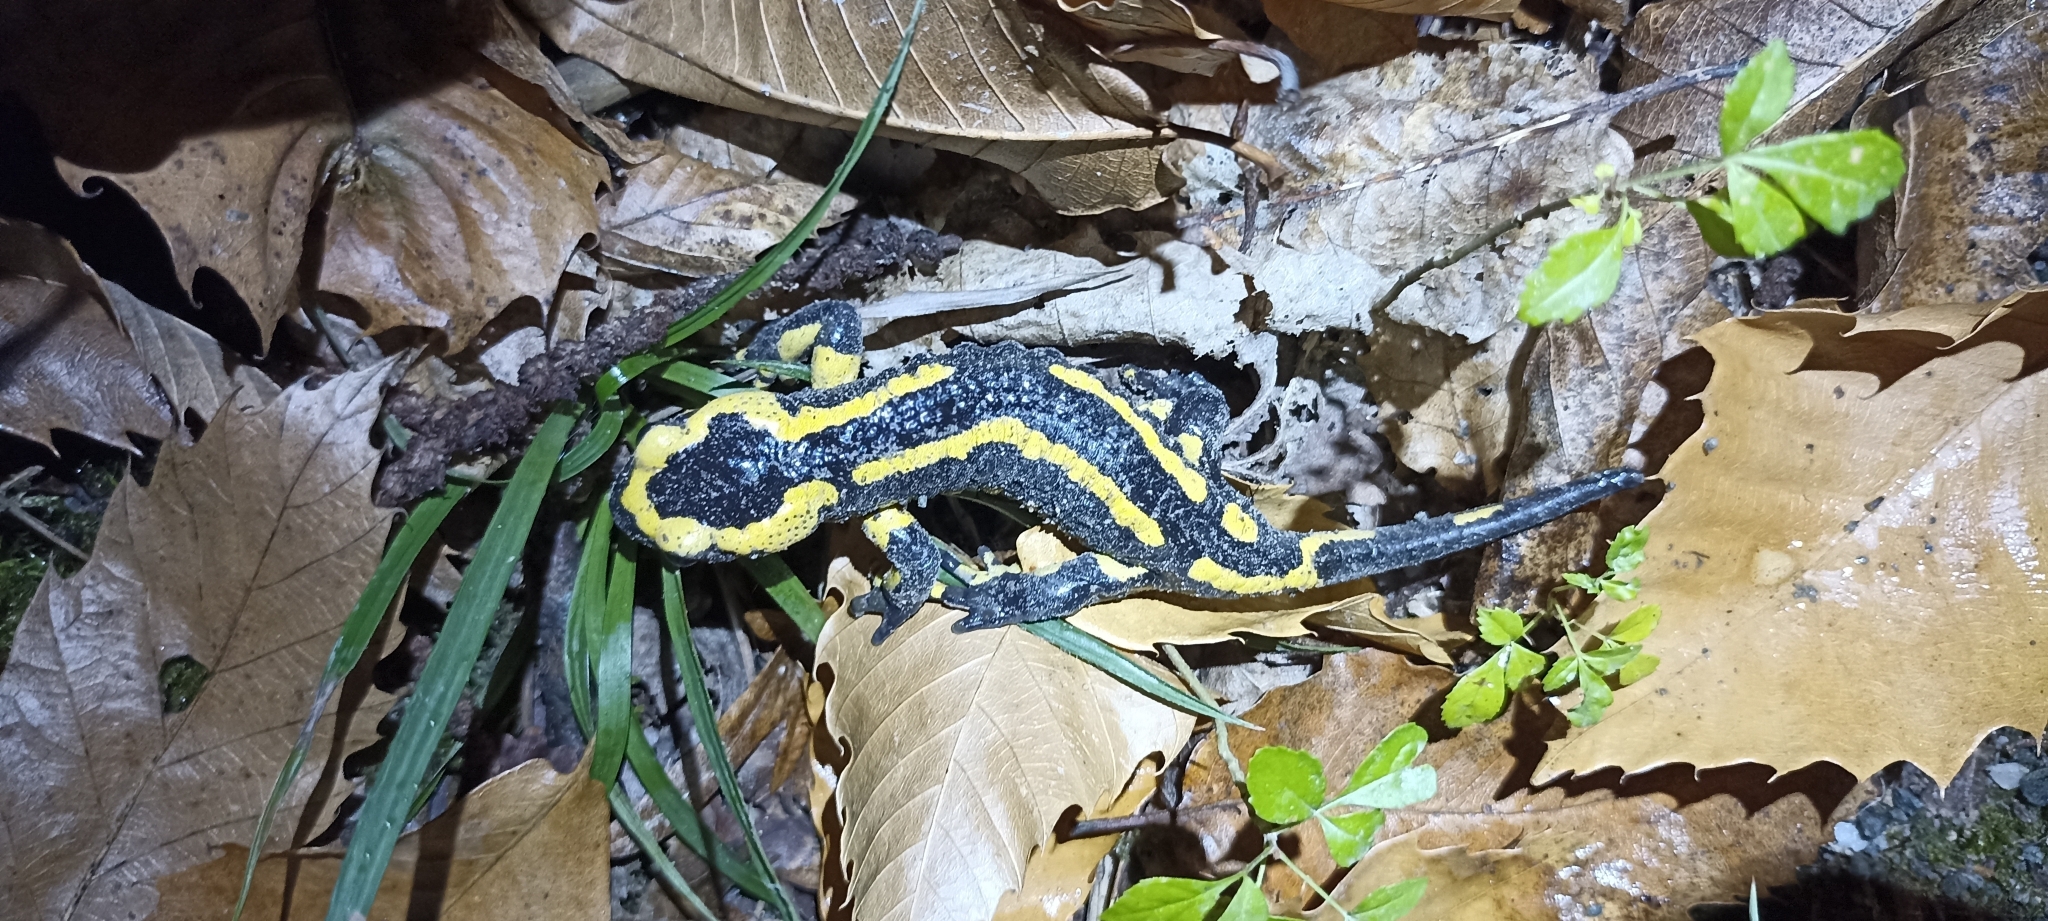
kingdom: Animalia
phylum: Chordata
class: Amphibia
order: Caudata
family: Salamandridae
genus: Salamandra
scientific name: Salamandra salamandra
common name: Fire salamander
